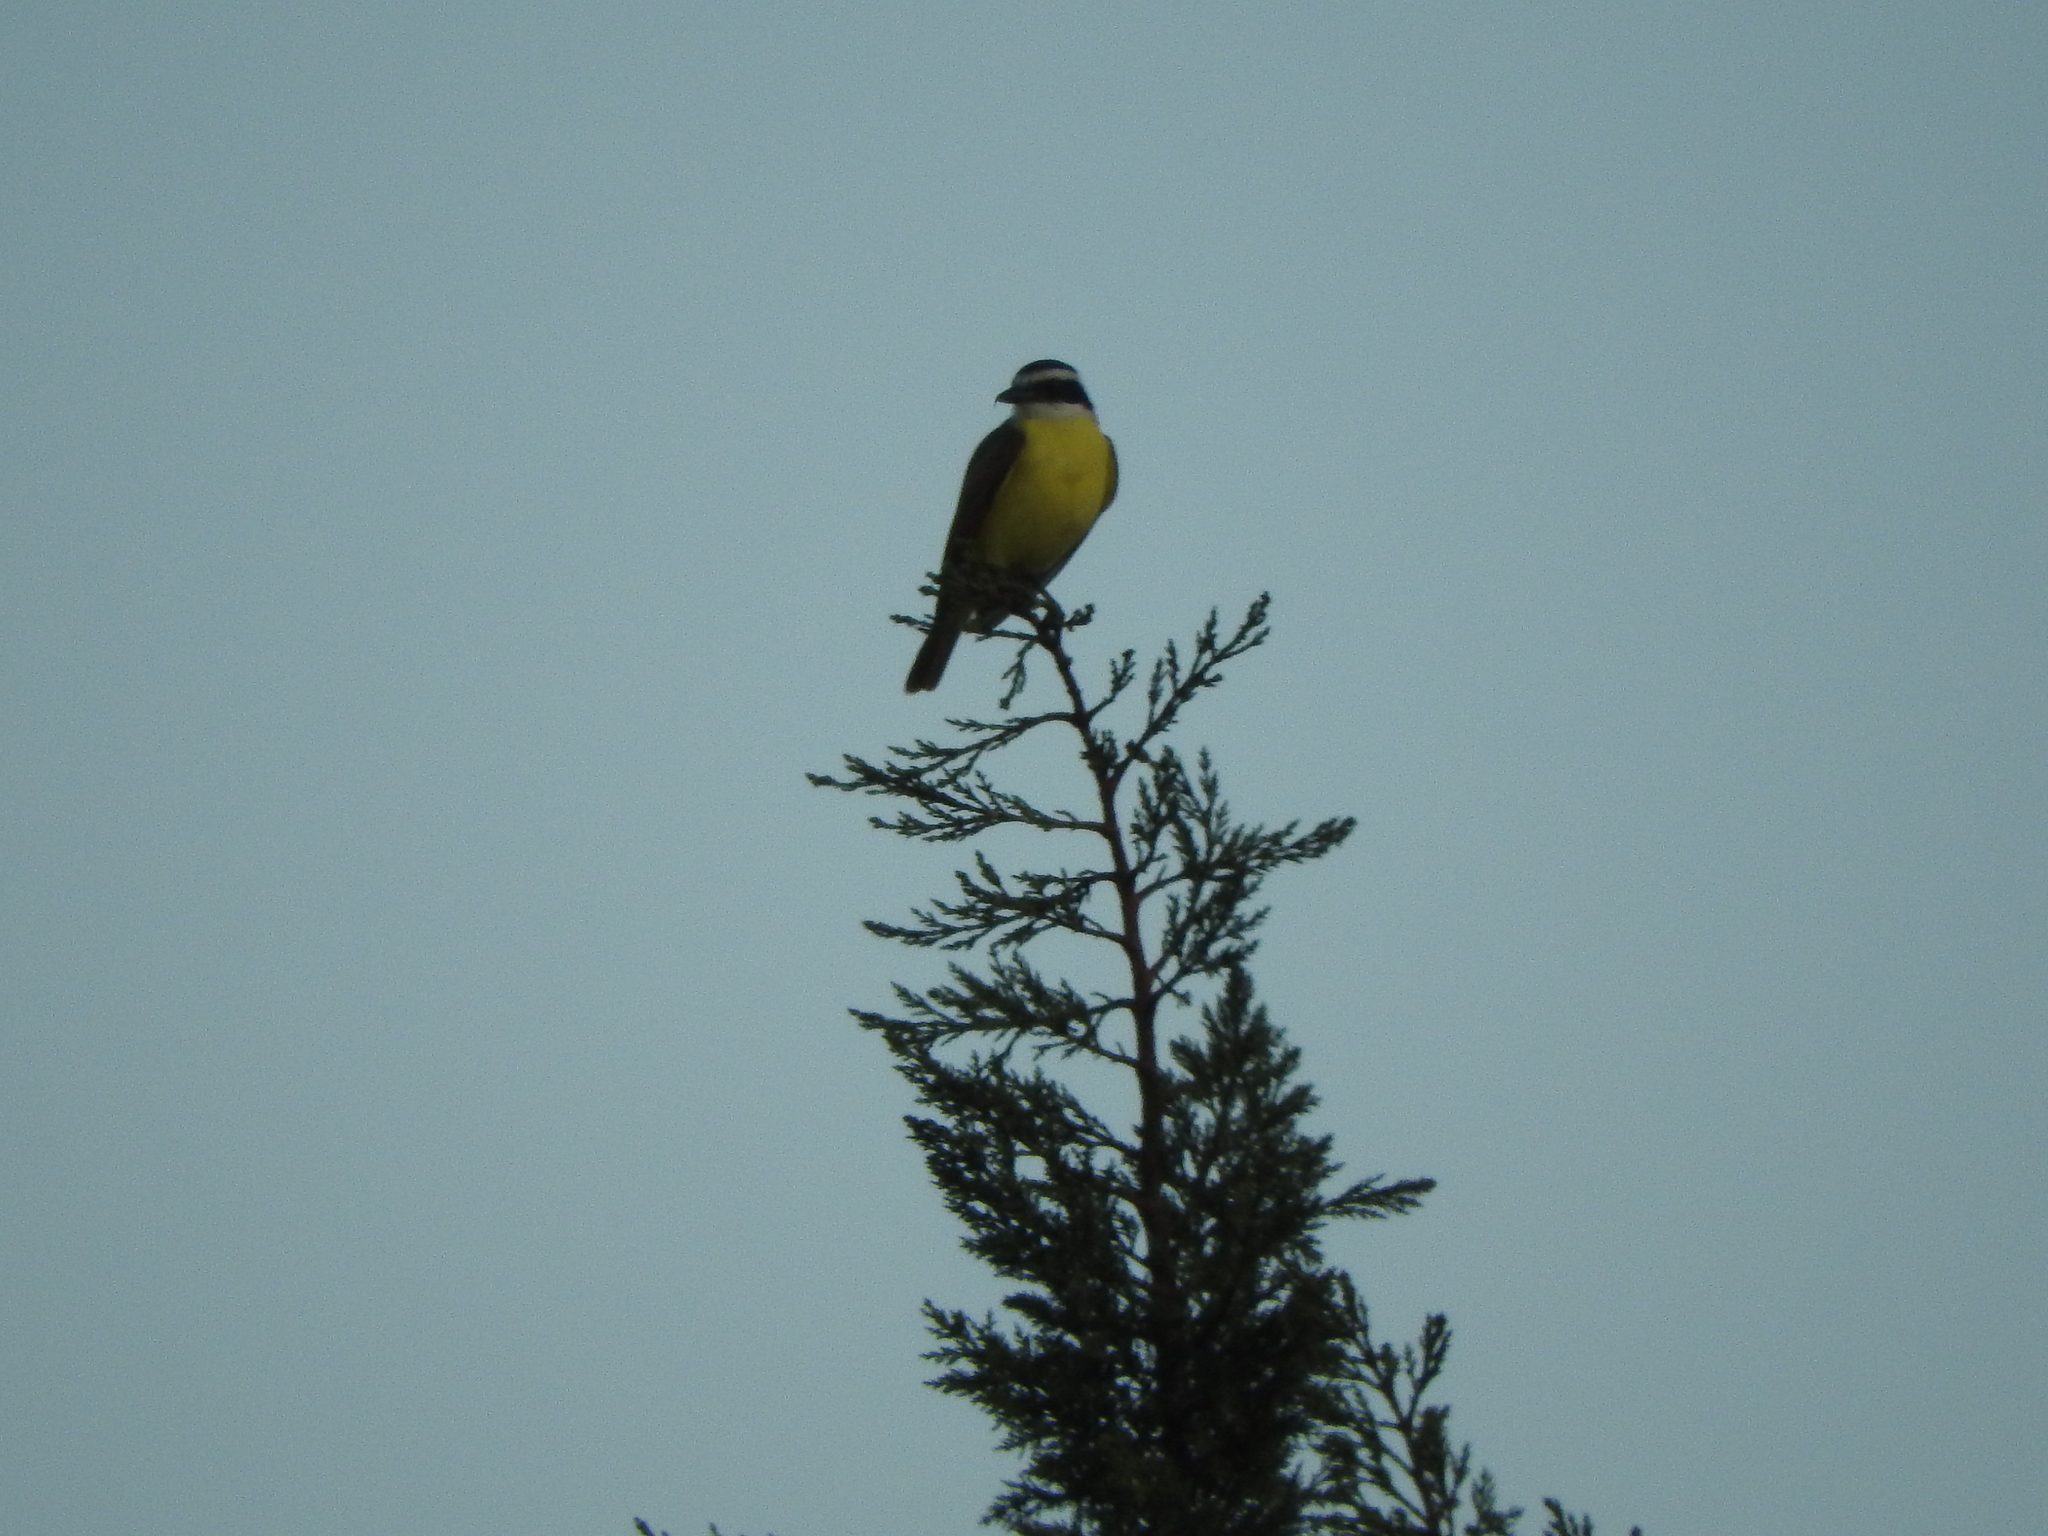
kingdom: Animalia
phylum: Chordata
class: Aves
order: Passeriformes
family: Tyrannidae
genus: Pitangus
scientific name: Pitangus sulphuratus
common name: Great kiskadee
